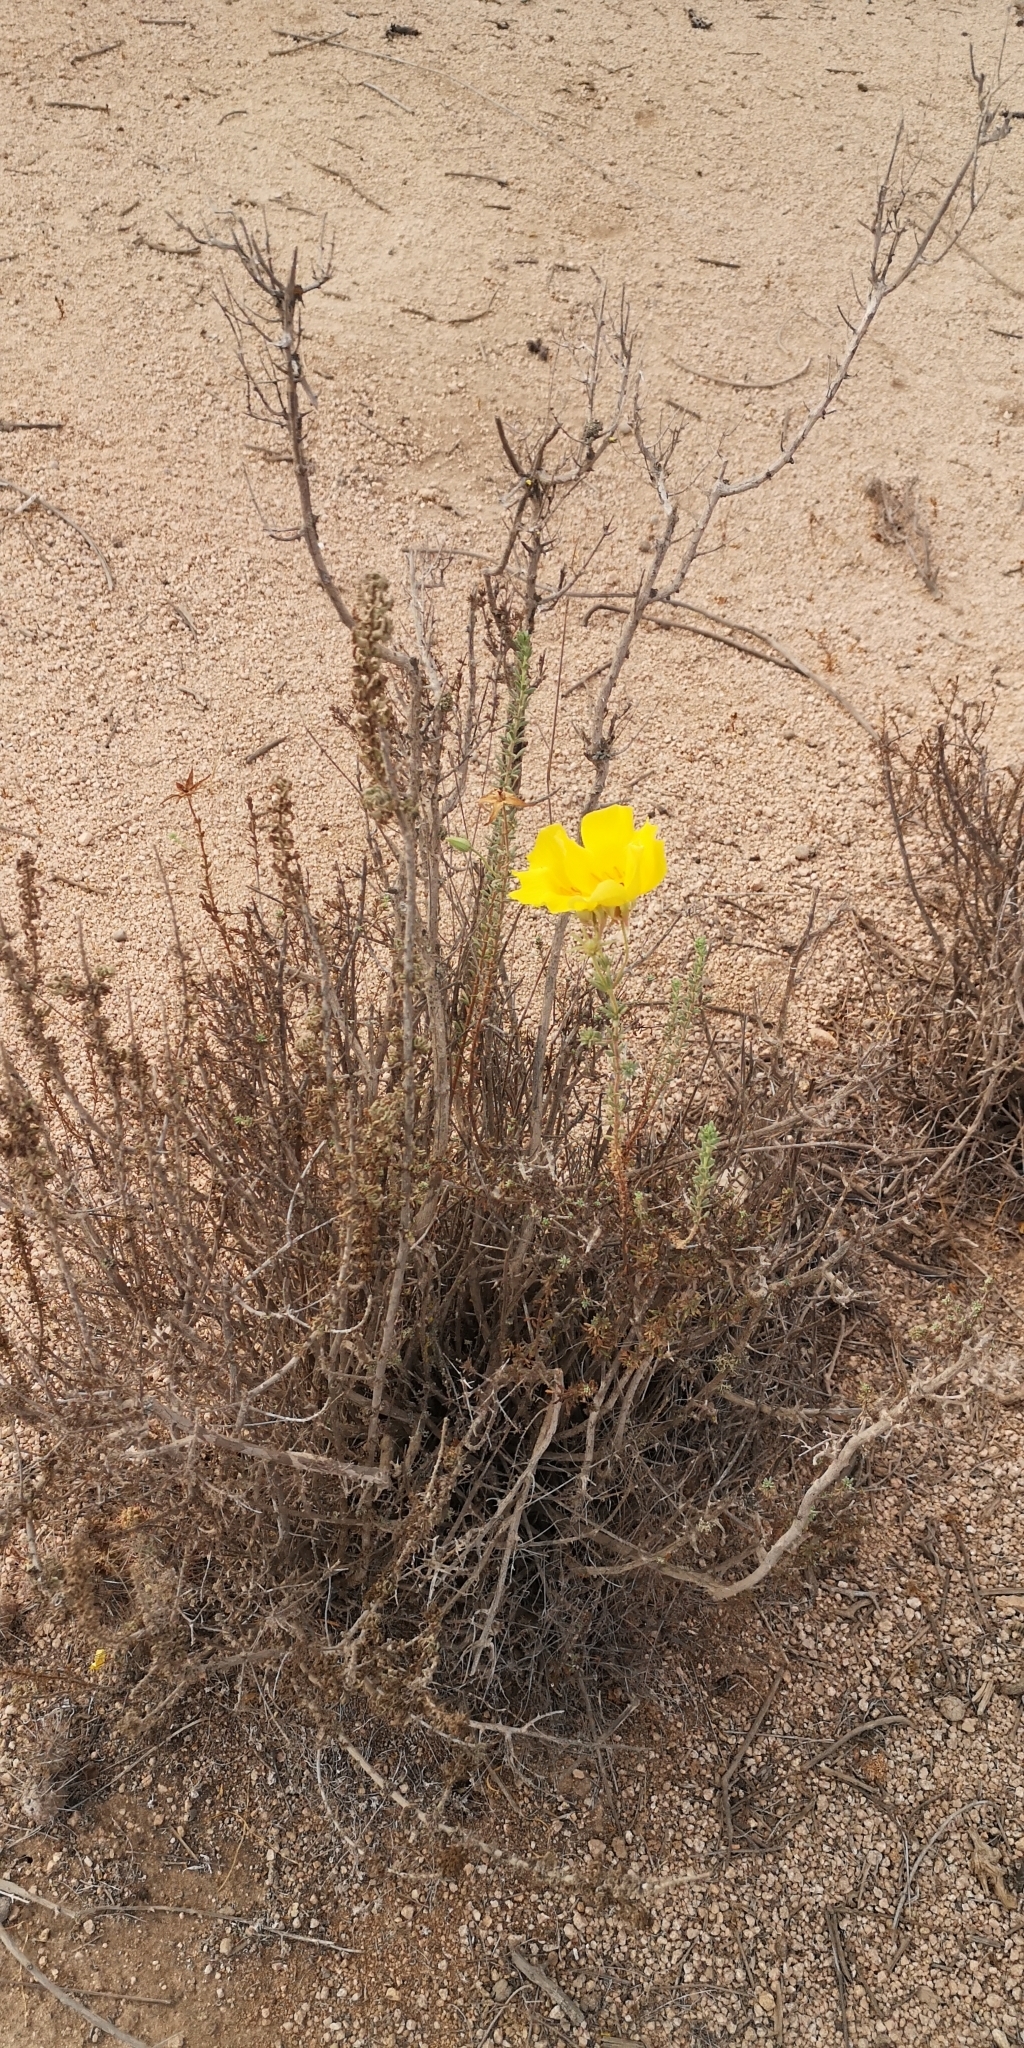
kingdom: Plantae
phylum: Tracheophyta
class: Magnoliopsida
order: Geraniales
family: Vivianiaceae
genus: Balbisia
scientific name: Balbisia peduncularis
